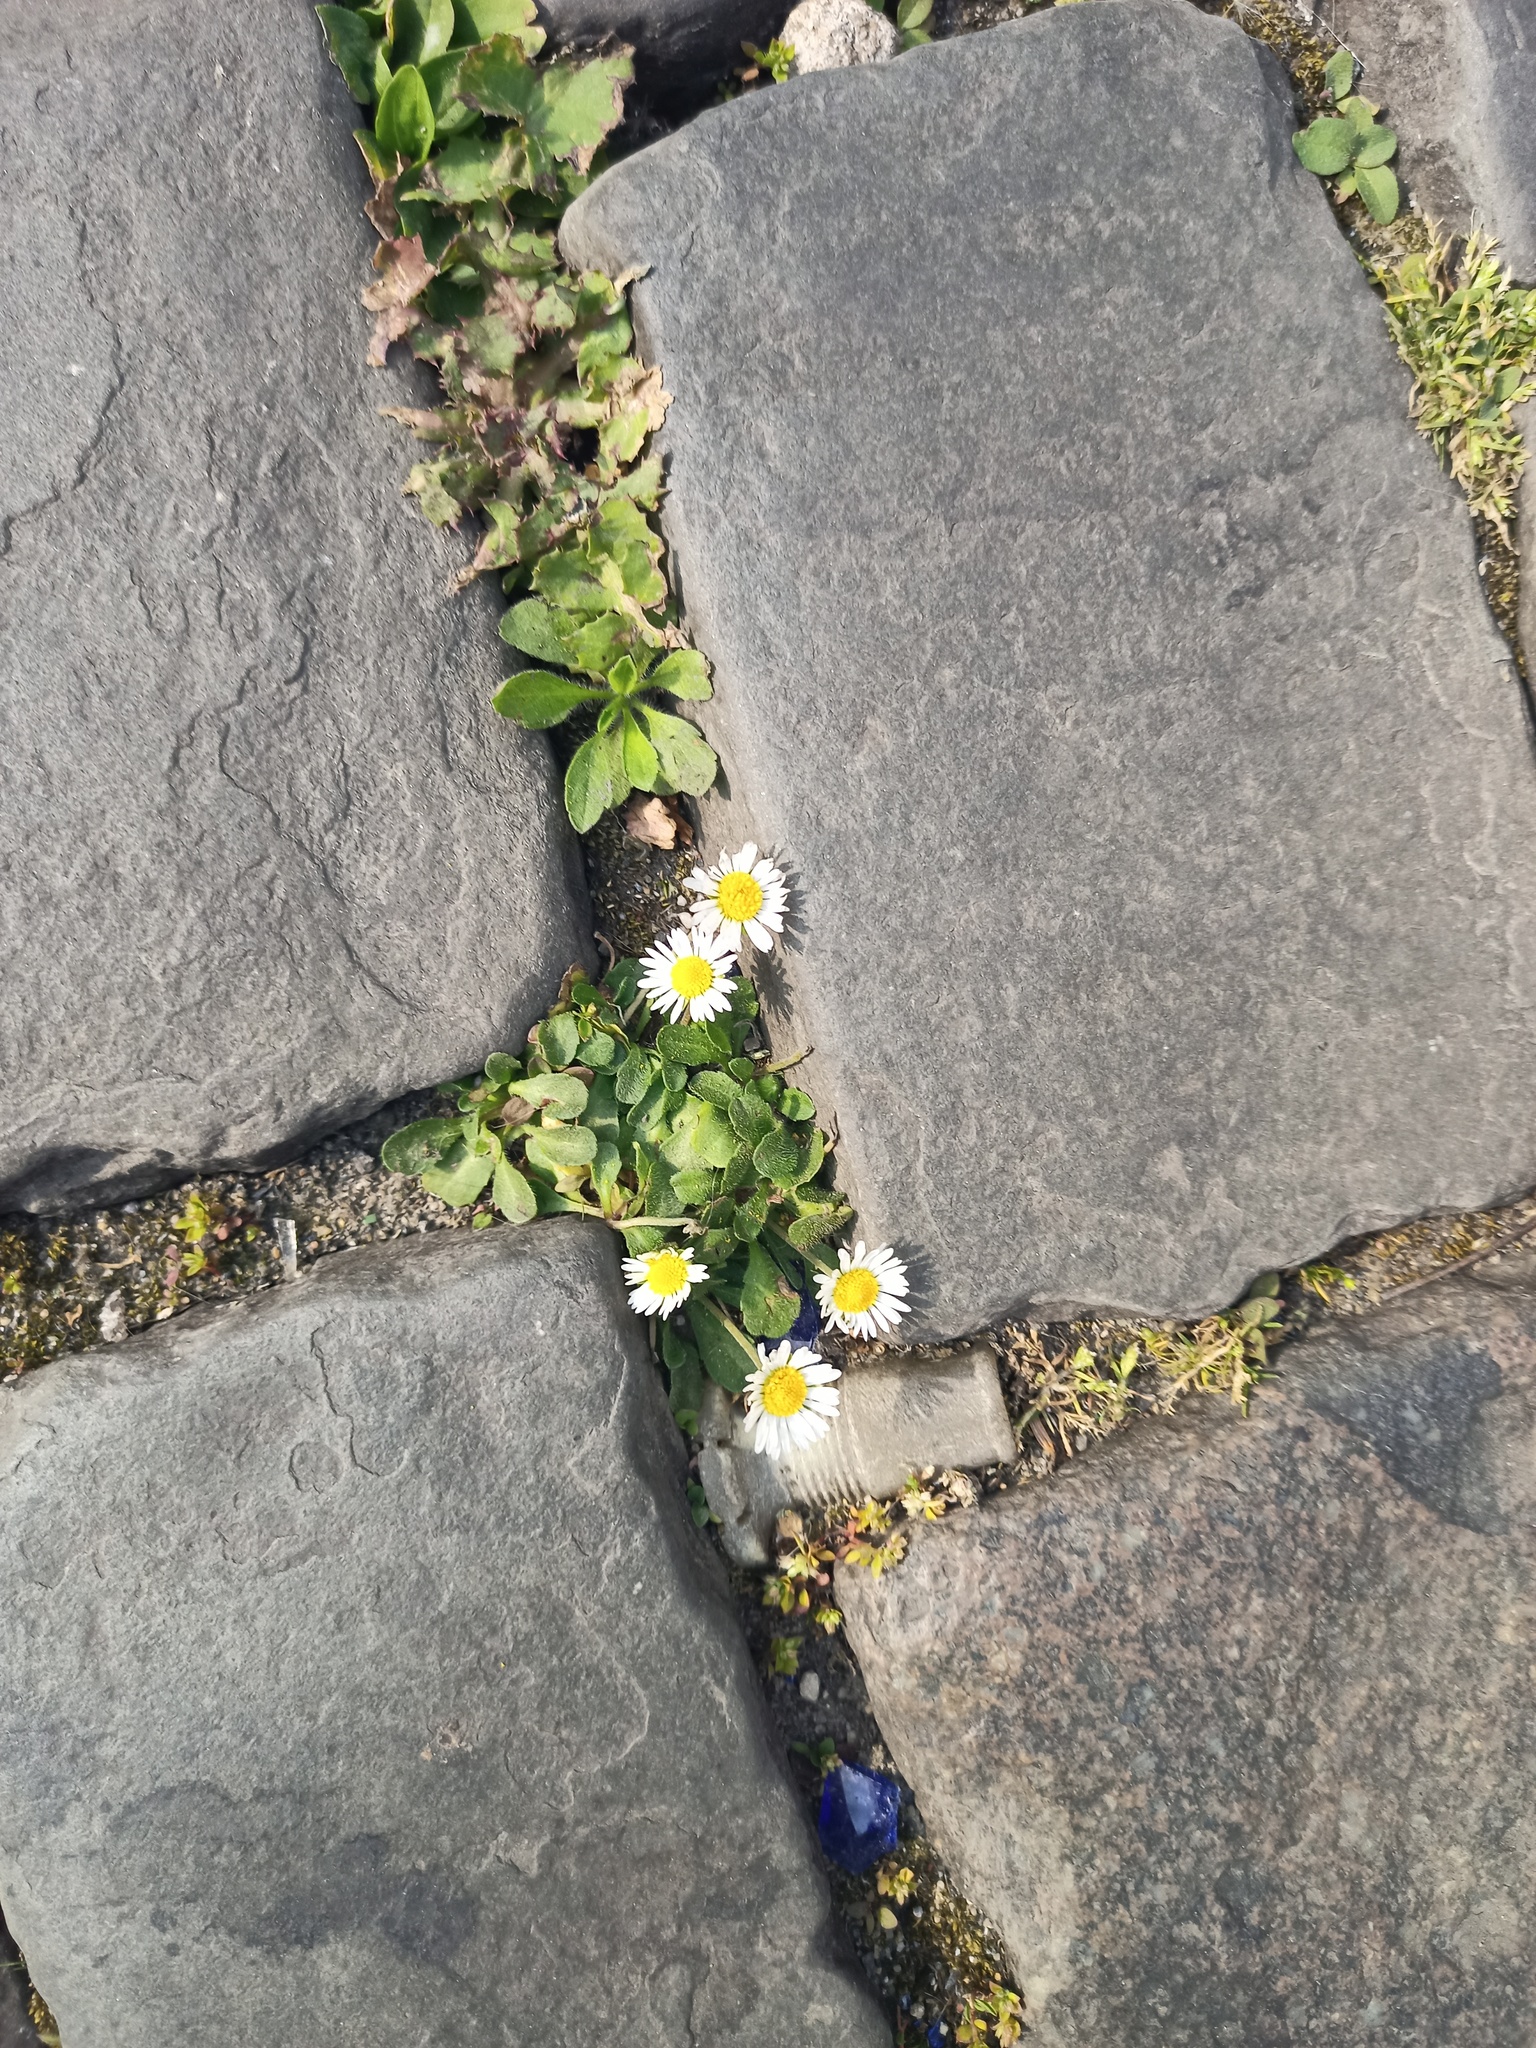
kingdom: Plantae
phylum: Tracheophyta
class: Magnoliopsida
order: Asterales
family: Asteraceae
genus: Bellis
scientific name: Bellis perennis
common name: Lawndaisy
